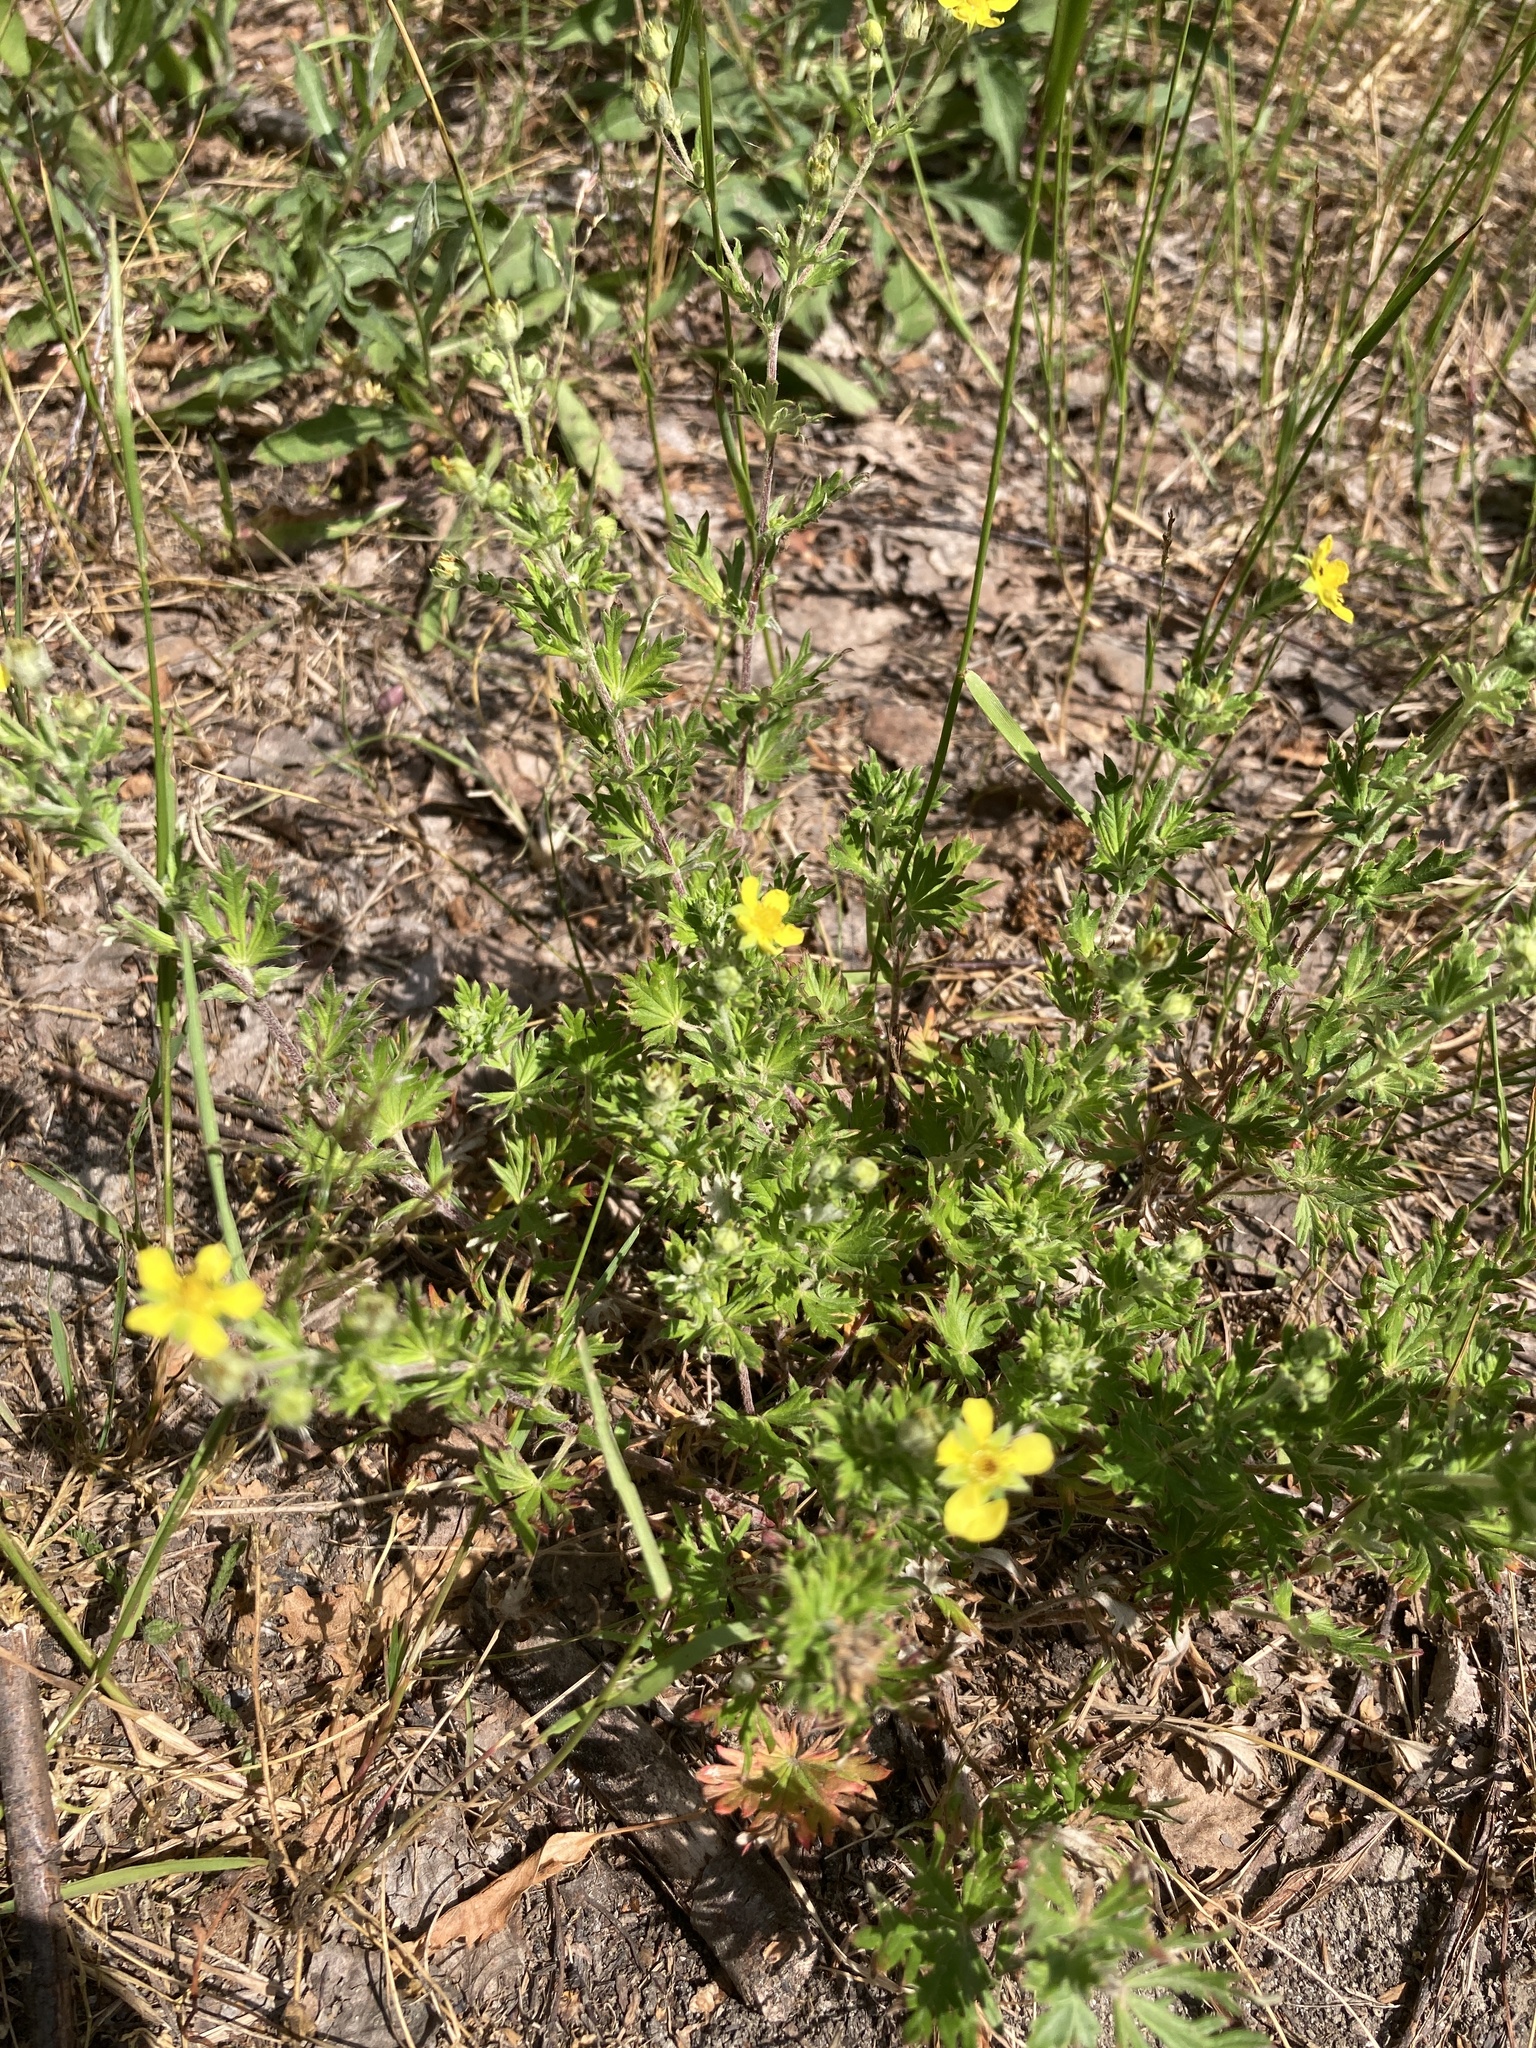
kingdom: Plantae
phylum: Tracheophyta
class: Magnoliopsida
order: Rosales
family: Rosaceae
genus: Potentilla
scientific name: Potentilla argentea
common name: Hoary cinquefoil
